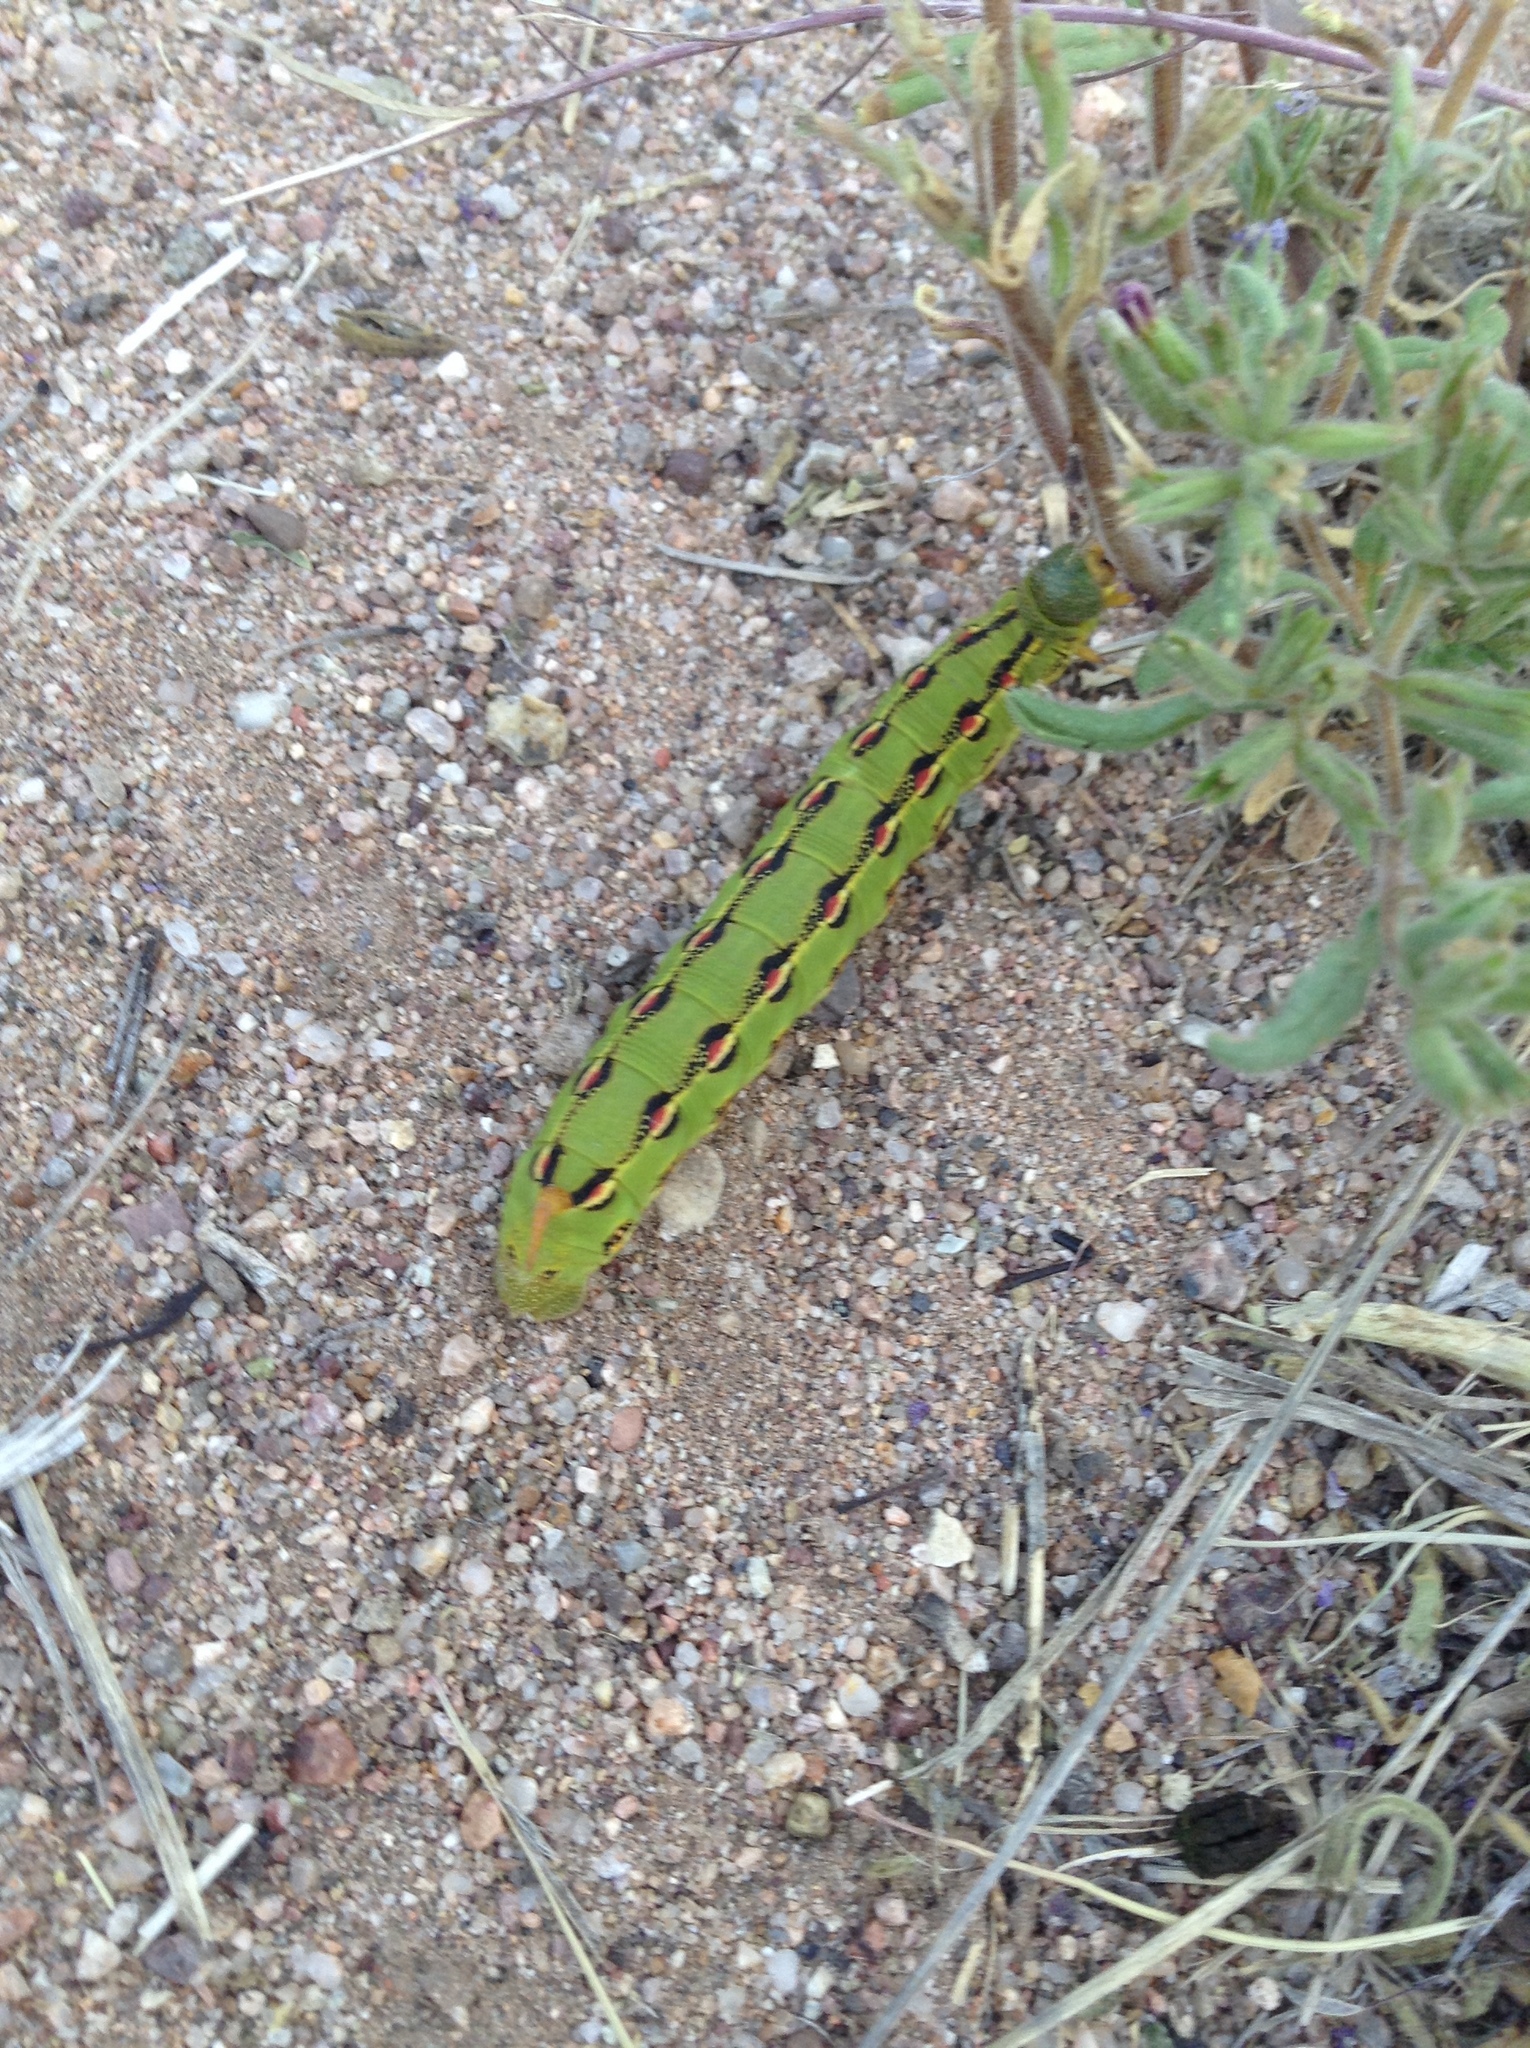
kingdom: Animalia
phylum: Arthropoda
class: Insecta
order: Lepidoptera
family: Sphingidae
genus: Hyles
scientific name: Hyles lineata
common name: White-lined sphinx
